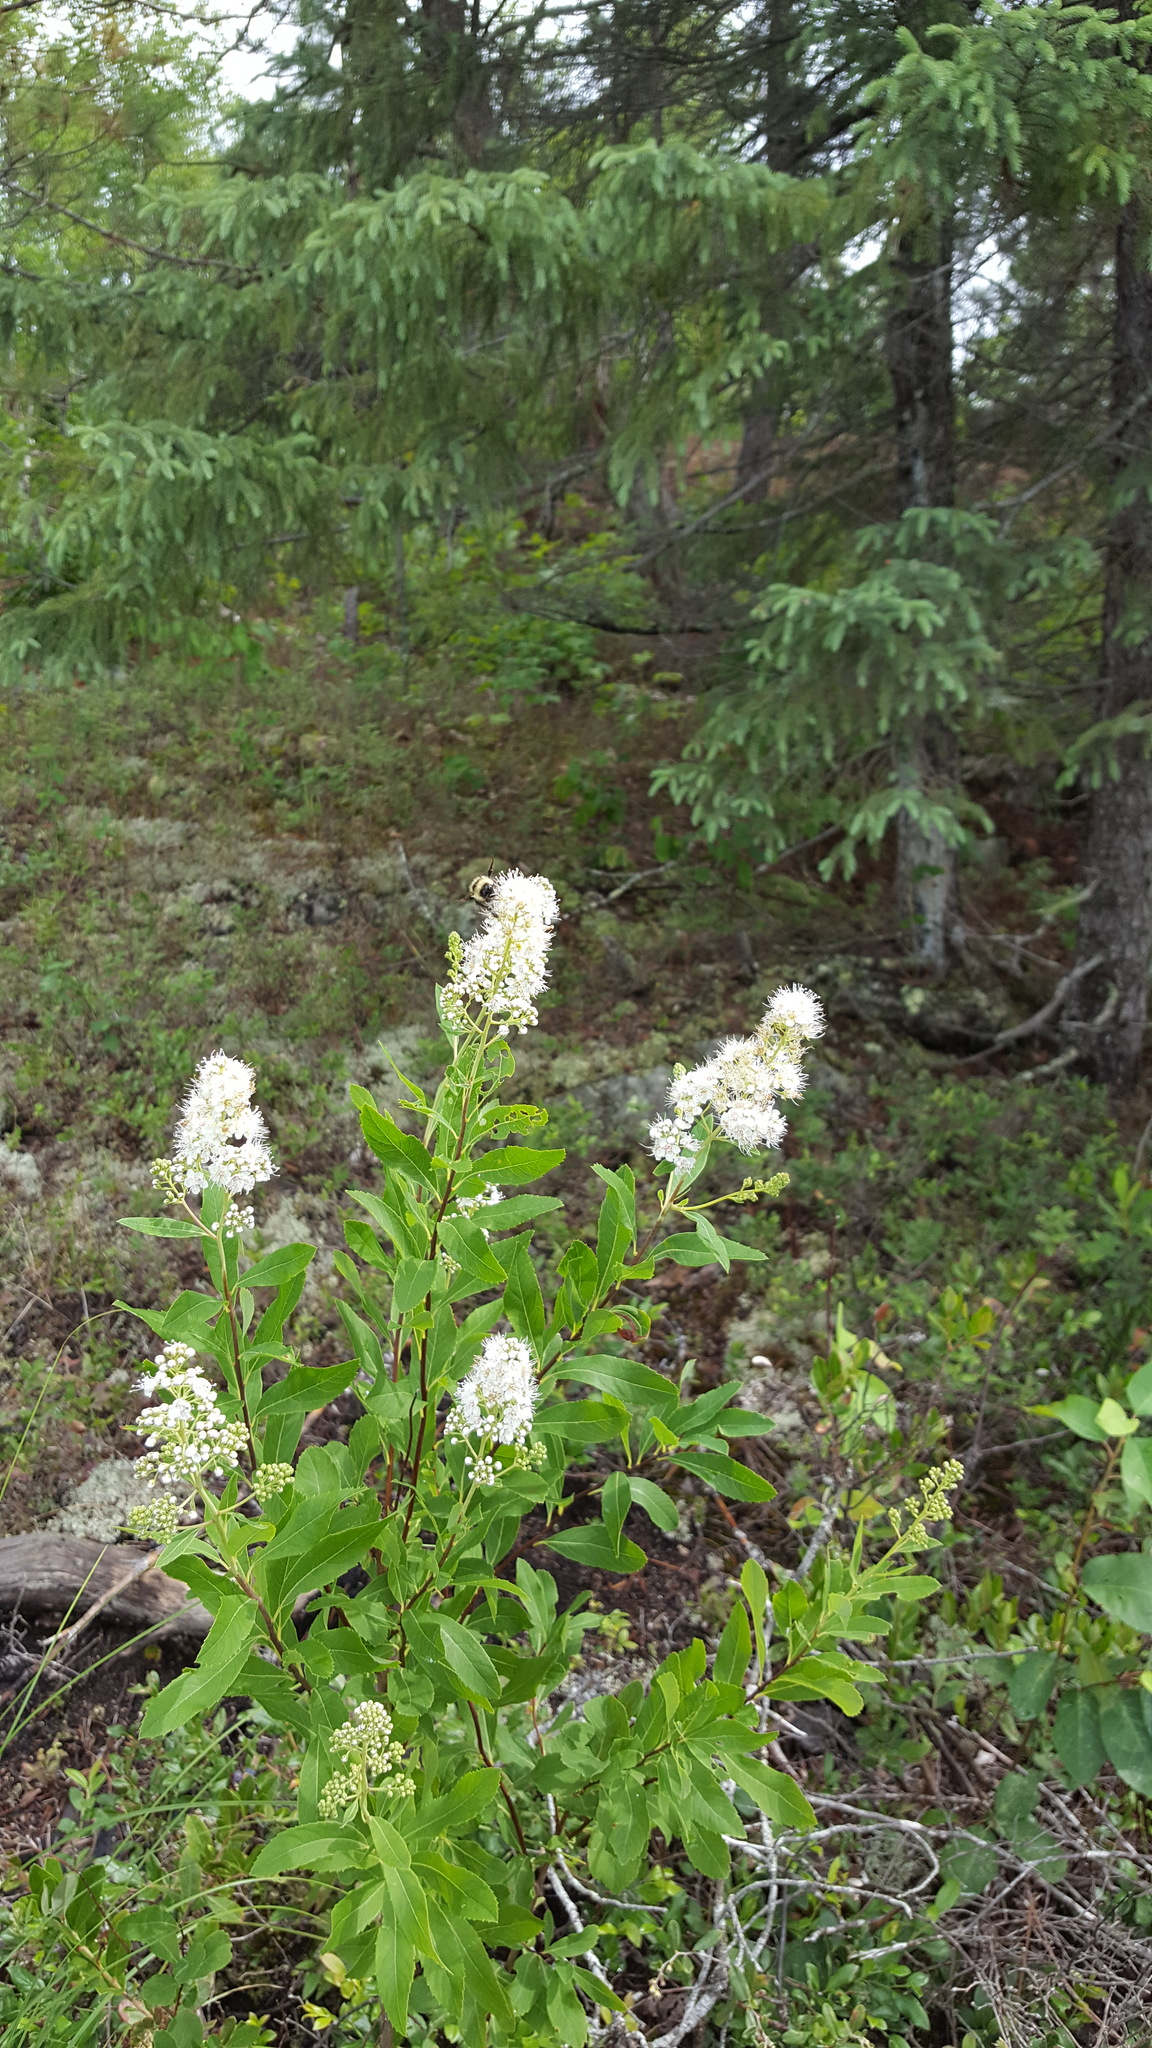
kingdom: Plantae
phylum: Tracheophyta
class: Magnoliopsida
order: Rosales
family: Rosaceae
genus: Spiraea
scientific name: Spiraea alba
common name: Pale bridewort
